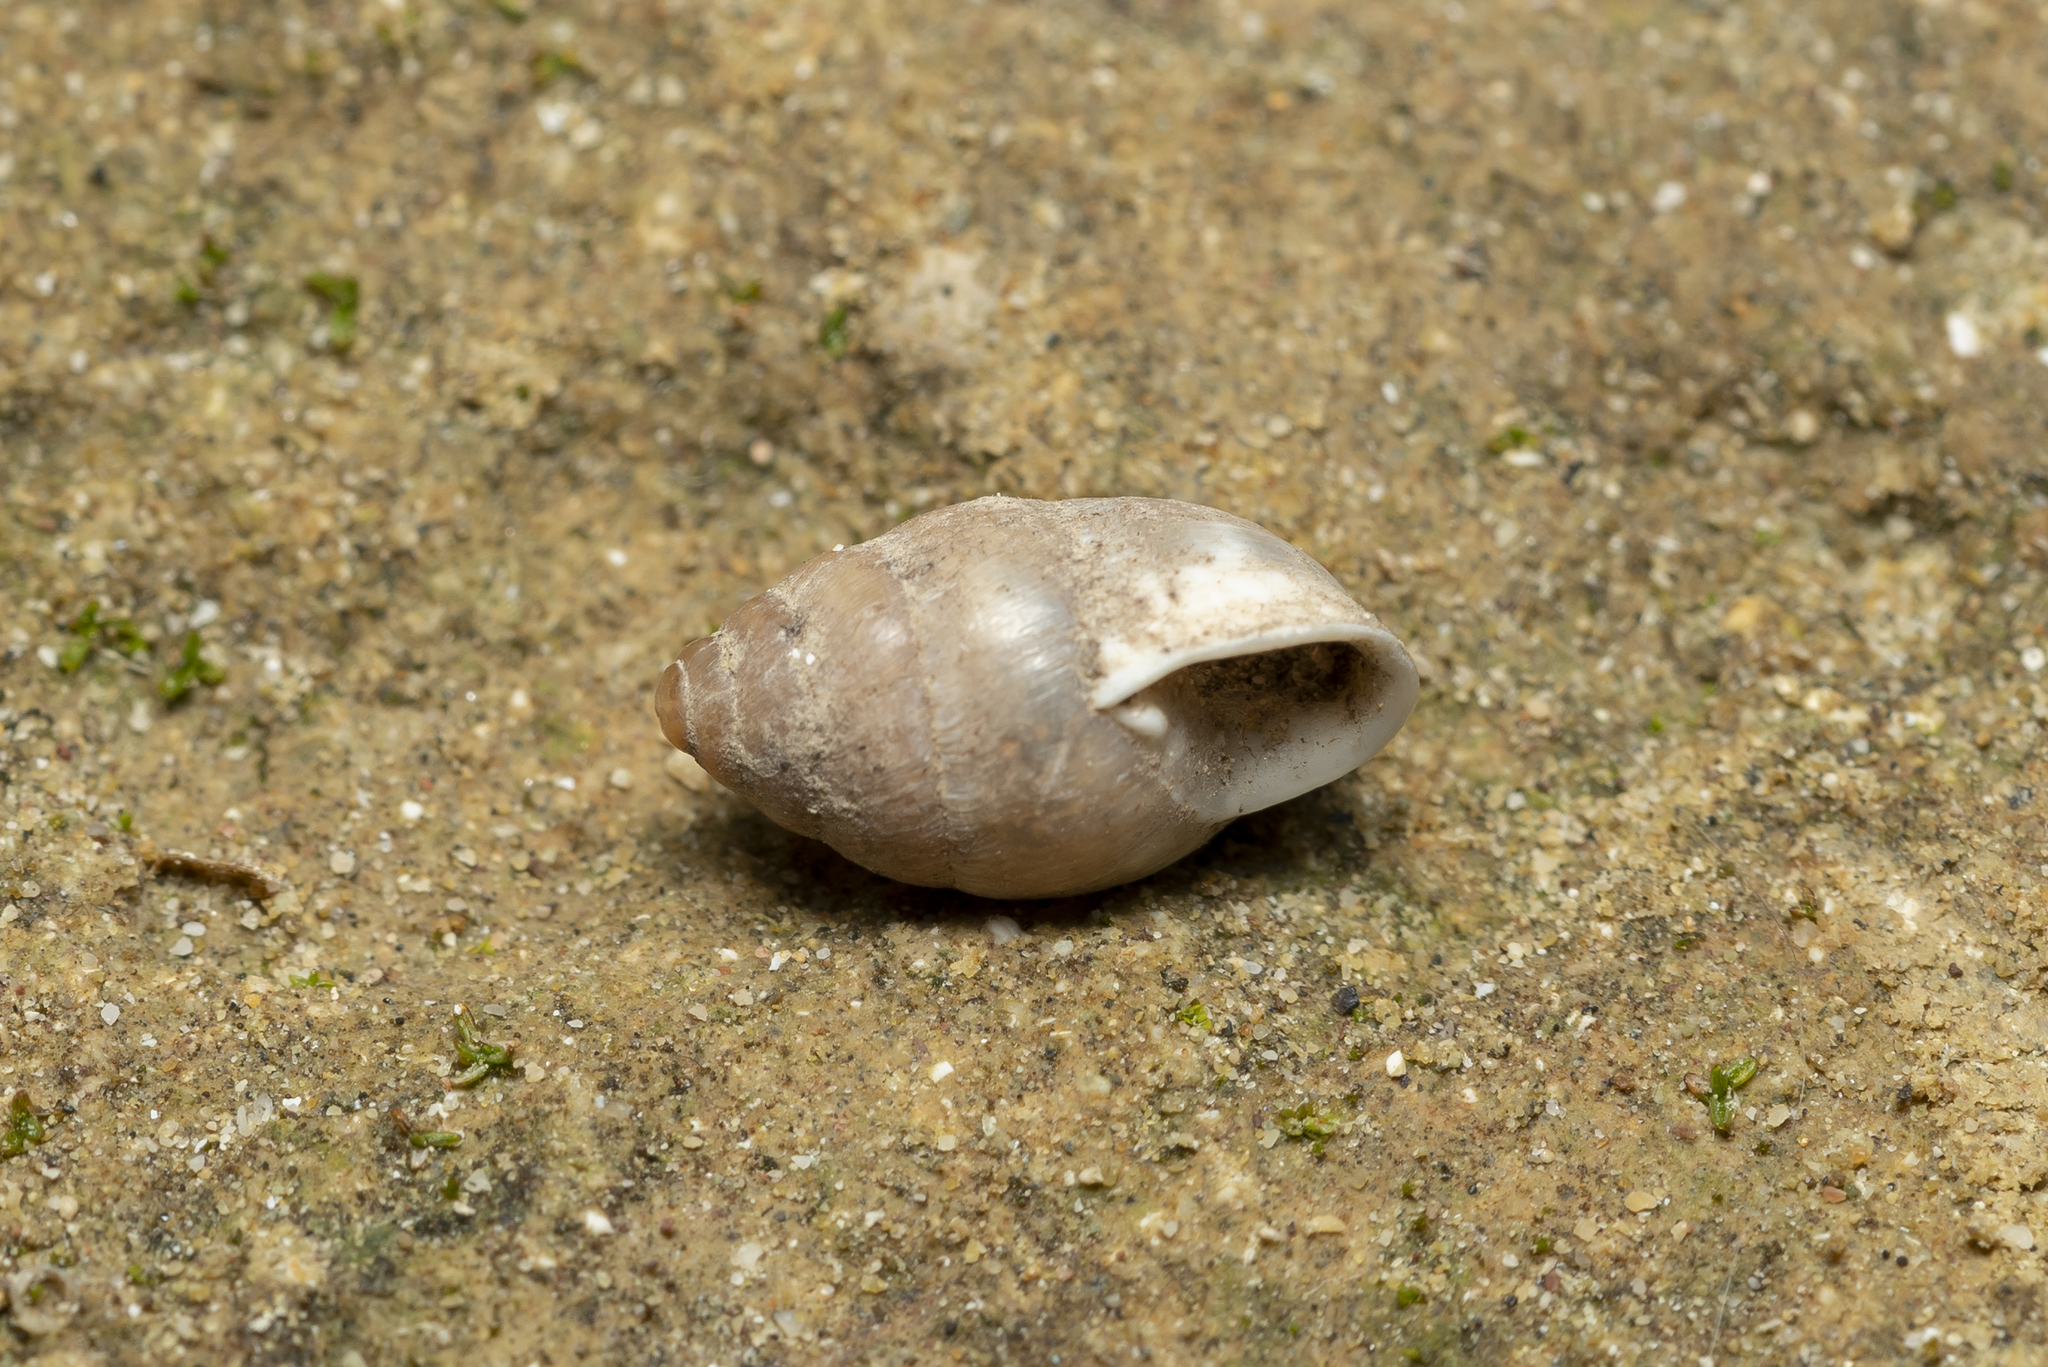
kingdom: Animalia
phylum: Mollusca
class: Gastropoda
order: Stylommatophora
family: Enidae
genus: Mastus
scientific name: Mastus turgidus
